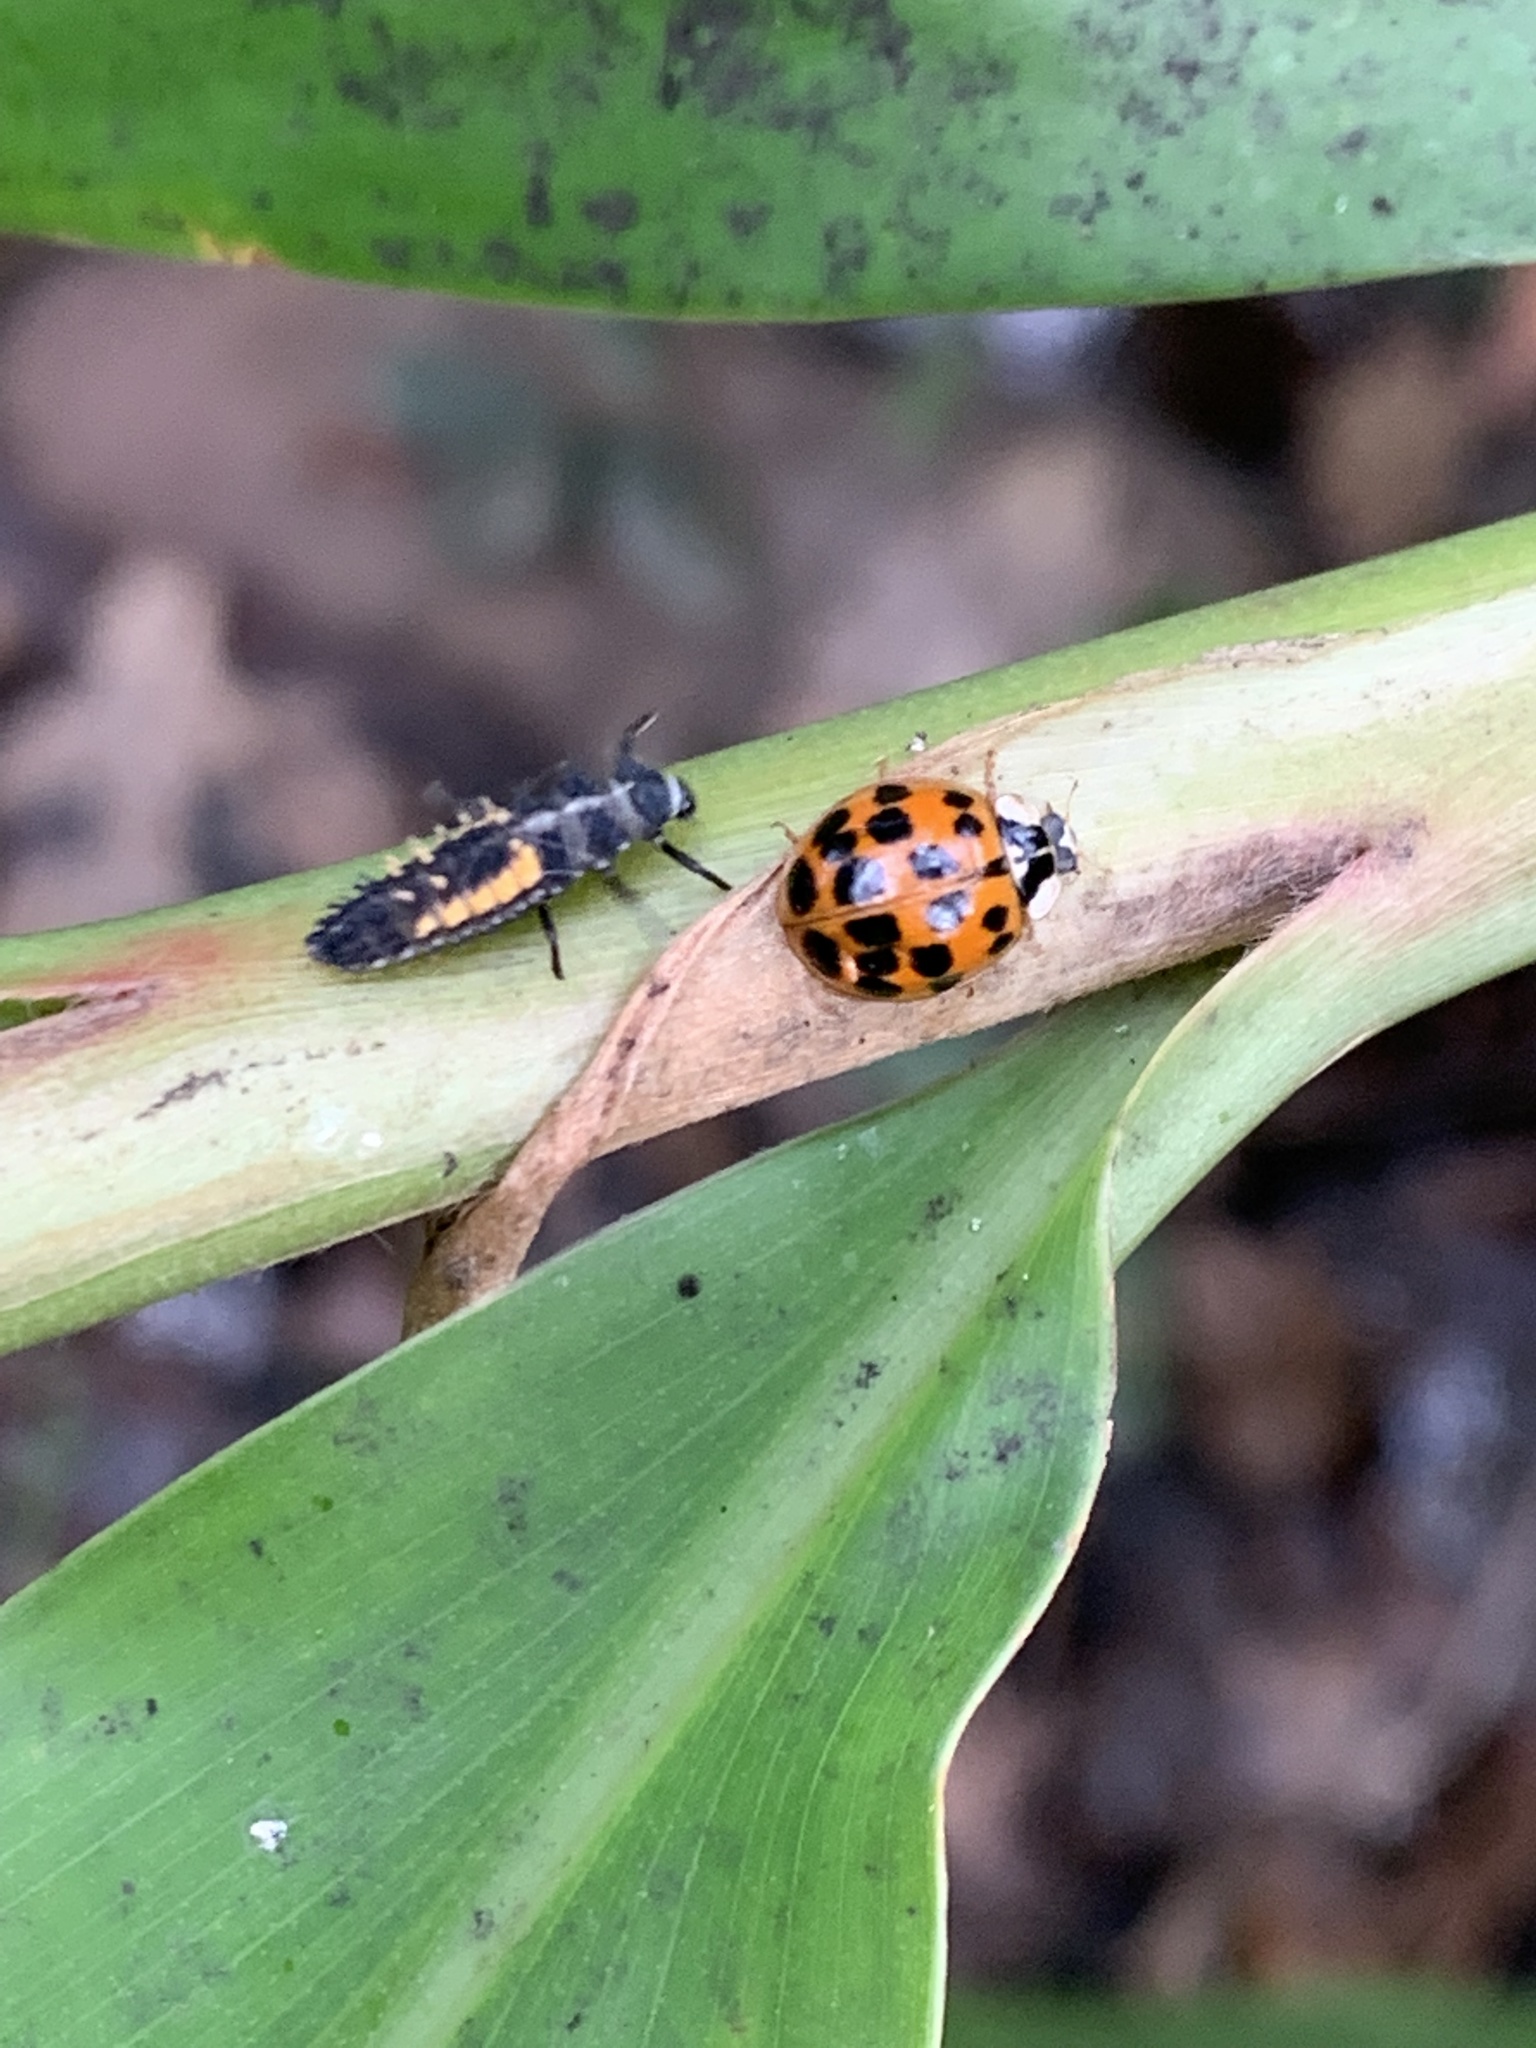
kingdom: Animalia
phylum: Arthropoda
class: Insecta
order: Coleoptera
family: Coccinellidae
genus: Harmonia
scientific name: Harmonia axyridis
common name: Harlequin ladybird
